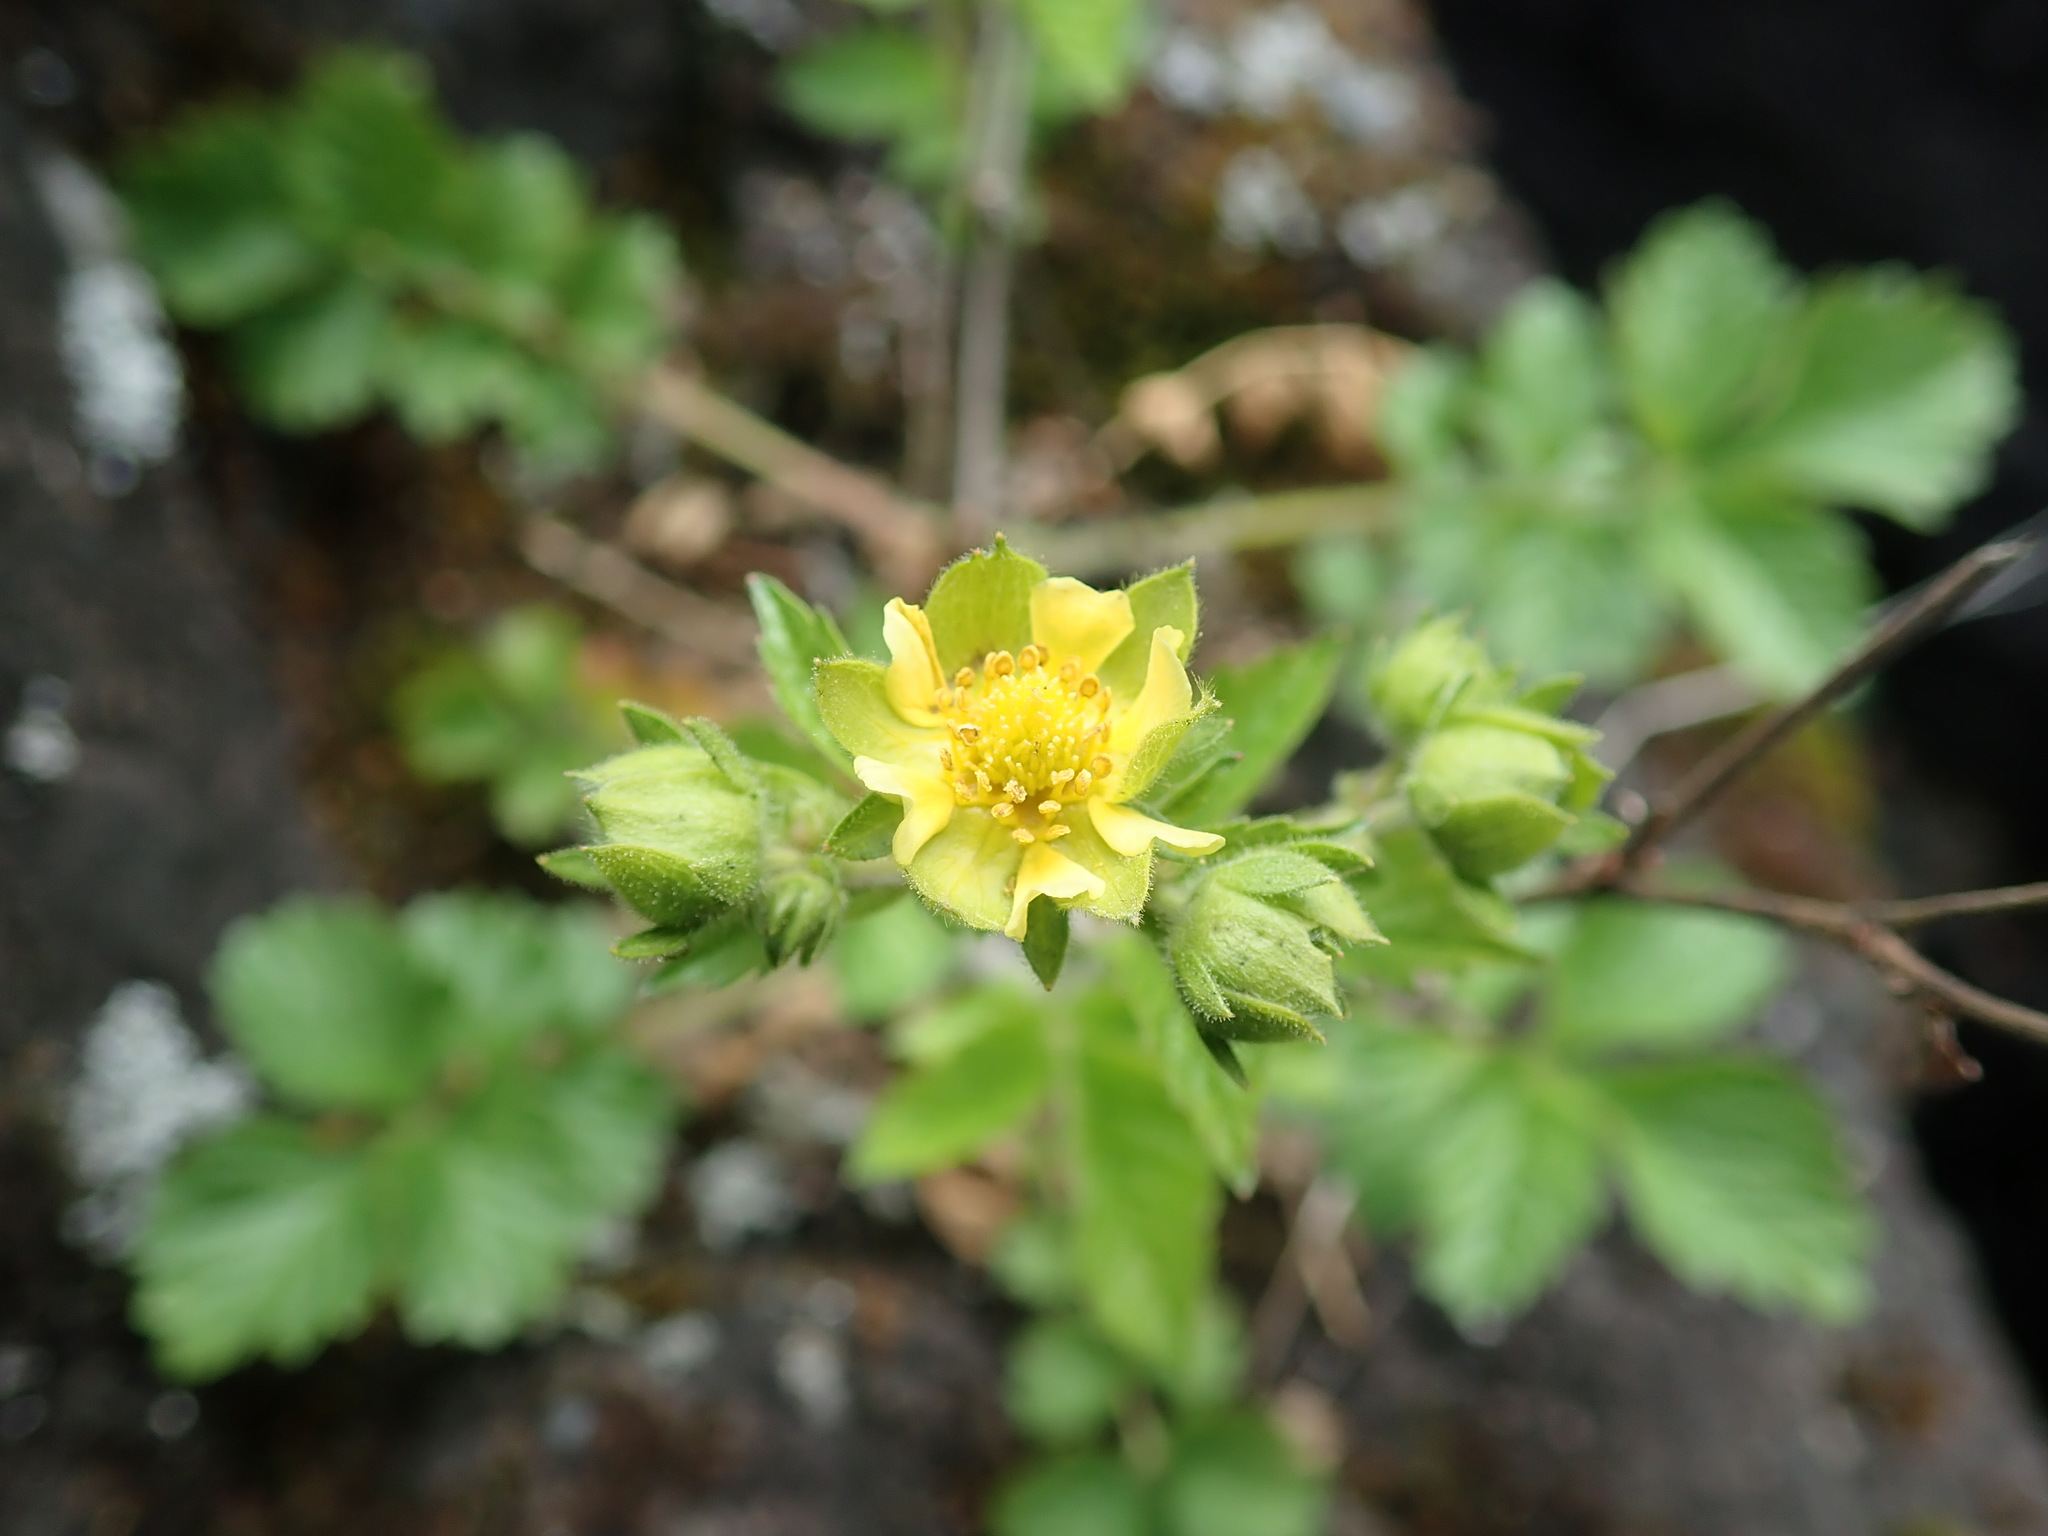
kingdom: Plantae
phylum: Tracheophyta
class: Magnoliopsida
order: Rosales
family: Rosaceae
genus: Drymocallis
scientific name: Drymocallis glandulosa
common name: Sticky cinquefoil
